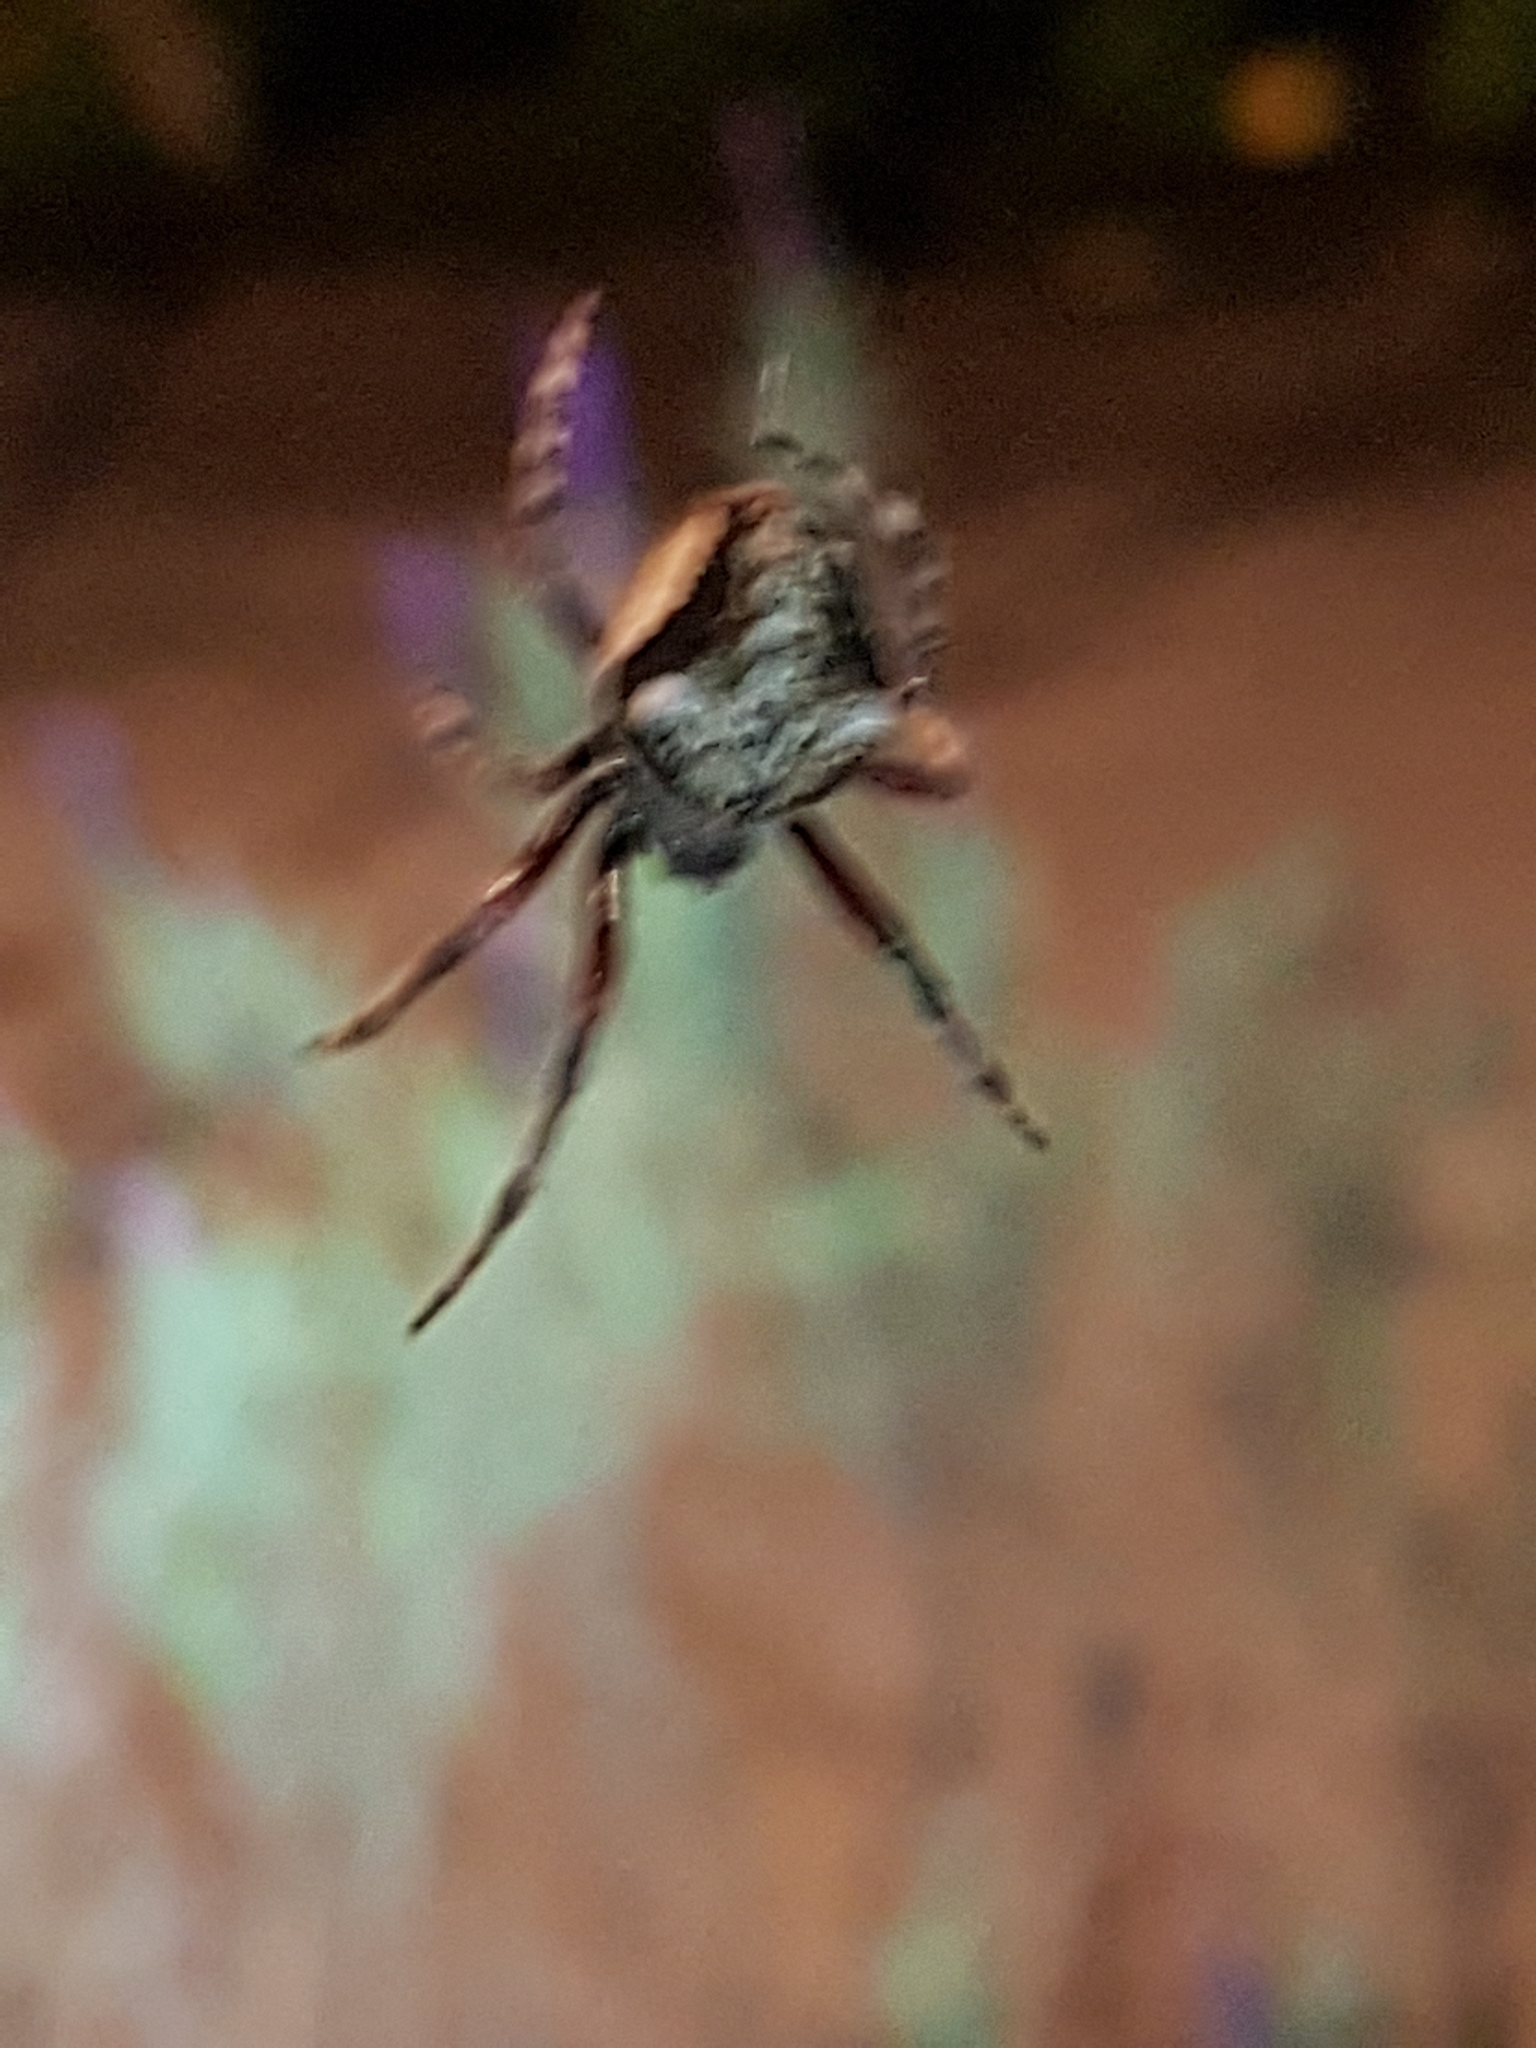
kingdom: Animalia
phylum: Arthropoda
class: Arachnida
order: Araneae
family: Araneidae
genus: Eriophora
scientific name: Eriophora pustulosa
